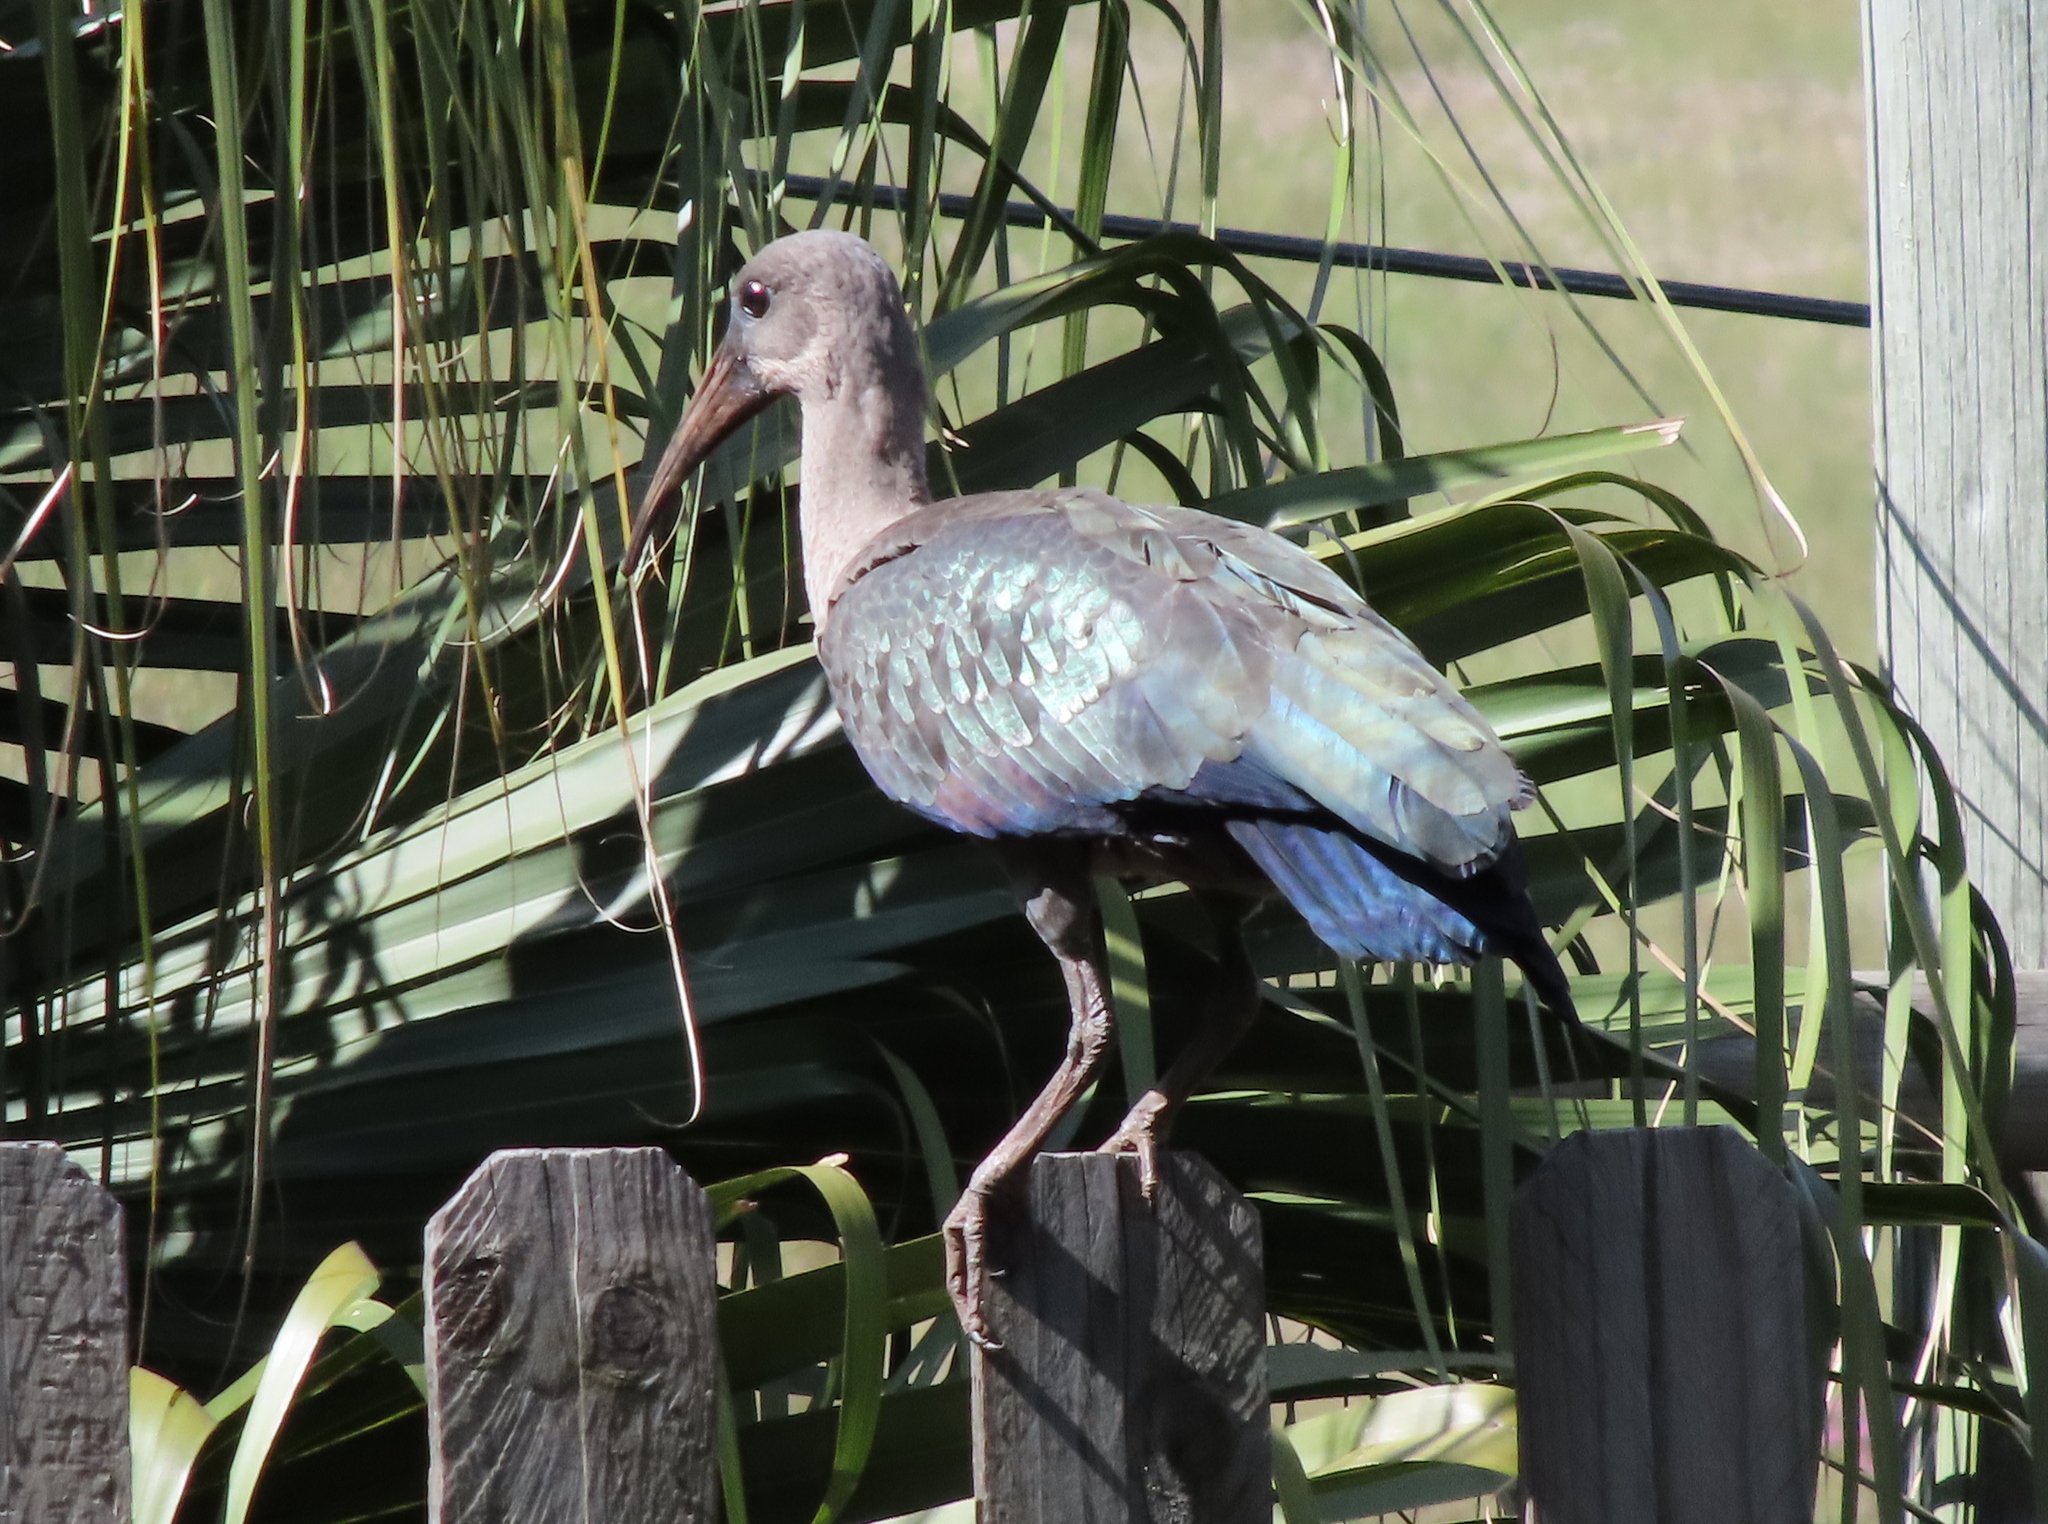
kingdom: Animalia
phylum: Chordata
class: Aves
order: Pelecaniformes
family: Threskiornithidae
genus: Bostrychia
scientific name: Bostrychia hagedash
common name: Hadada ibis
